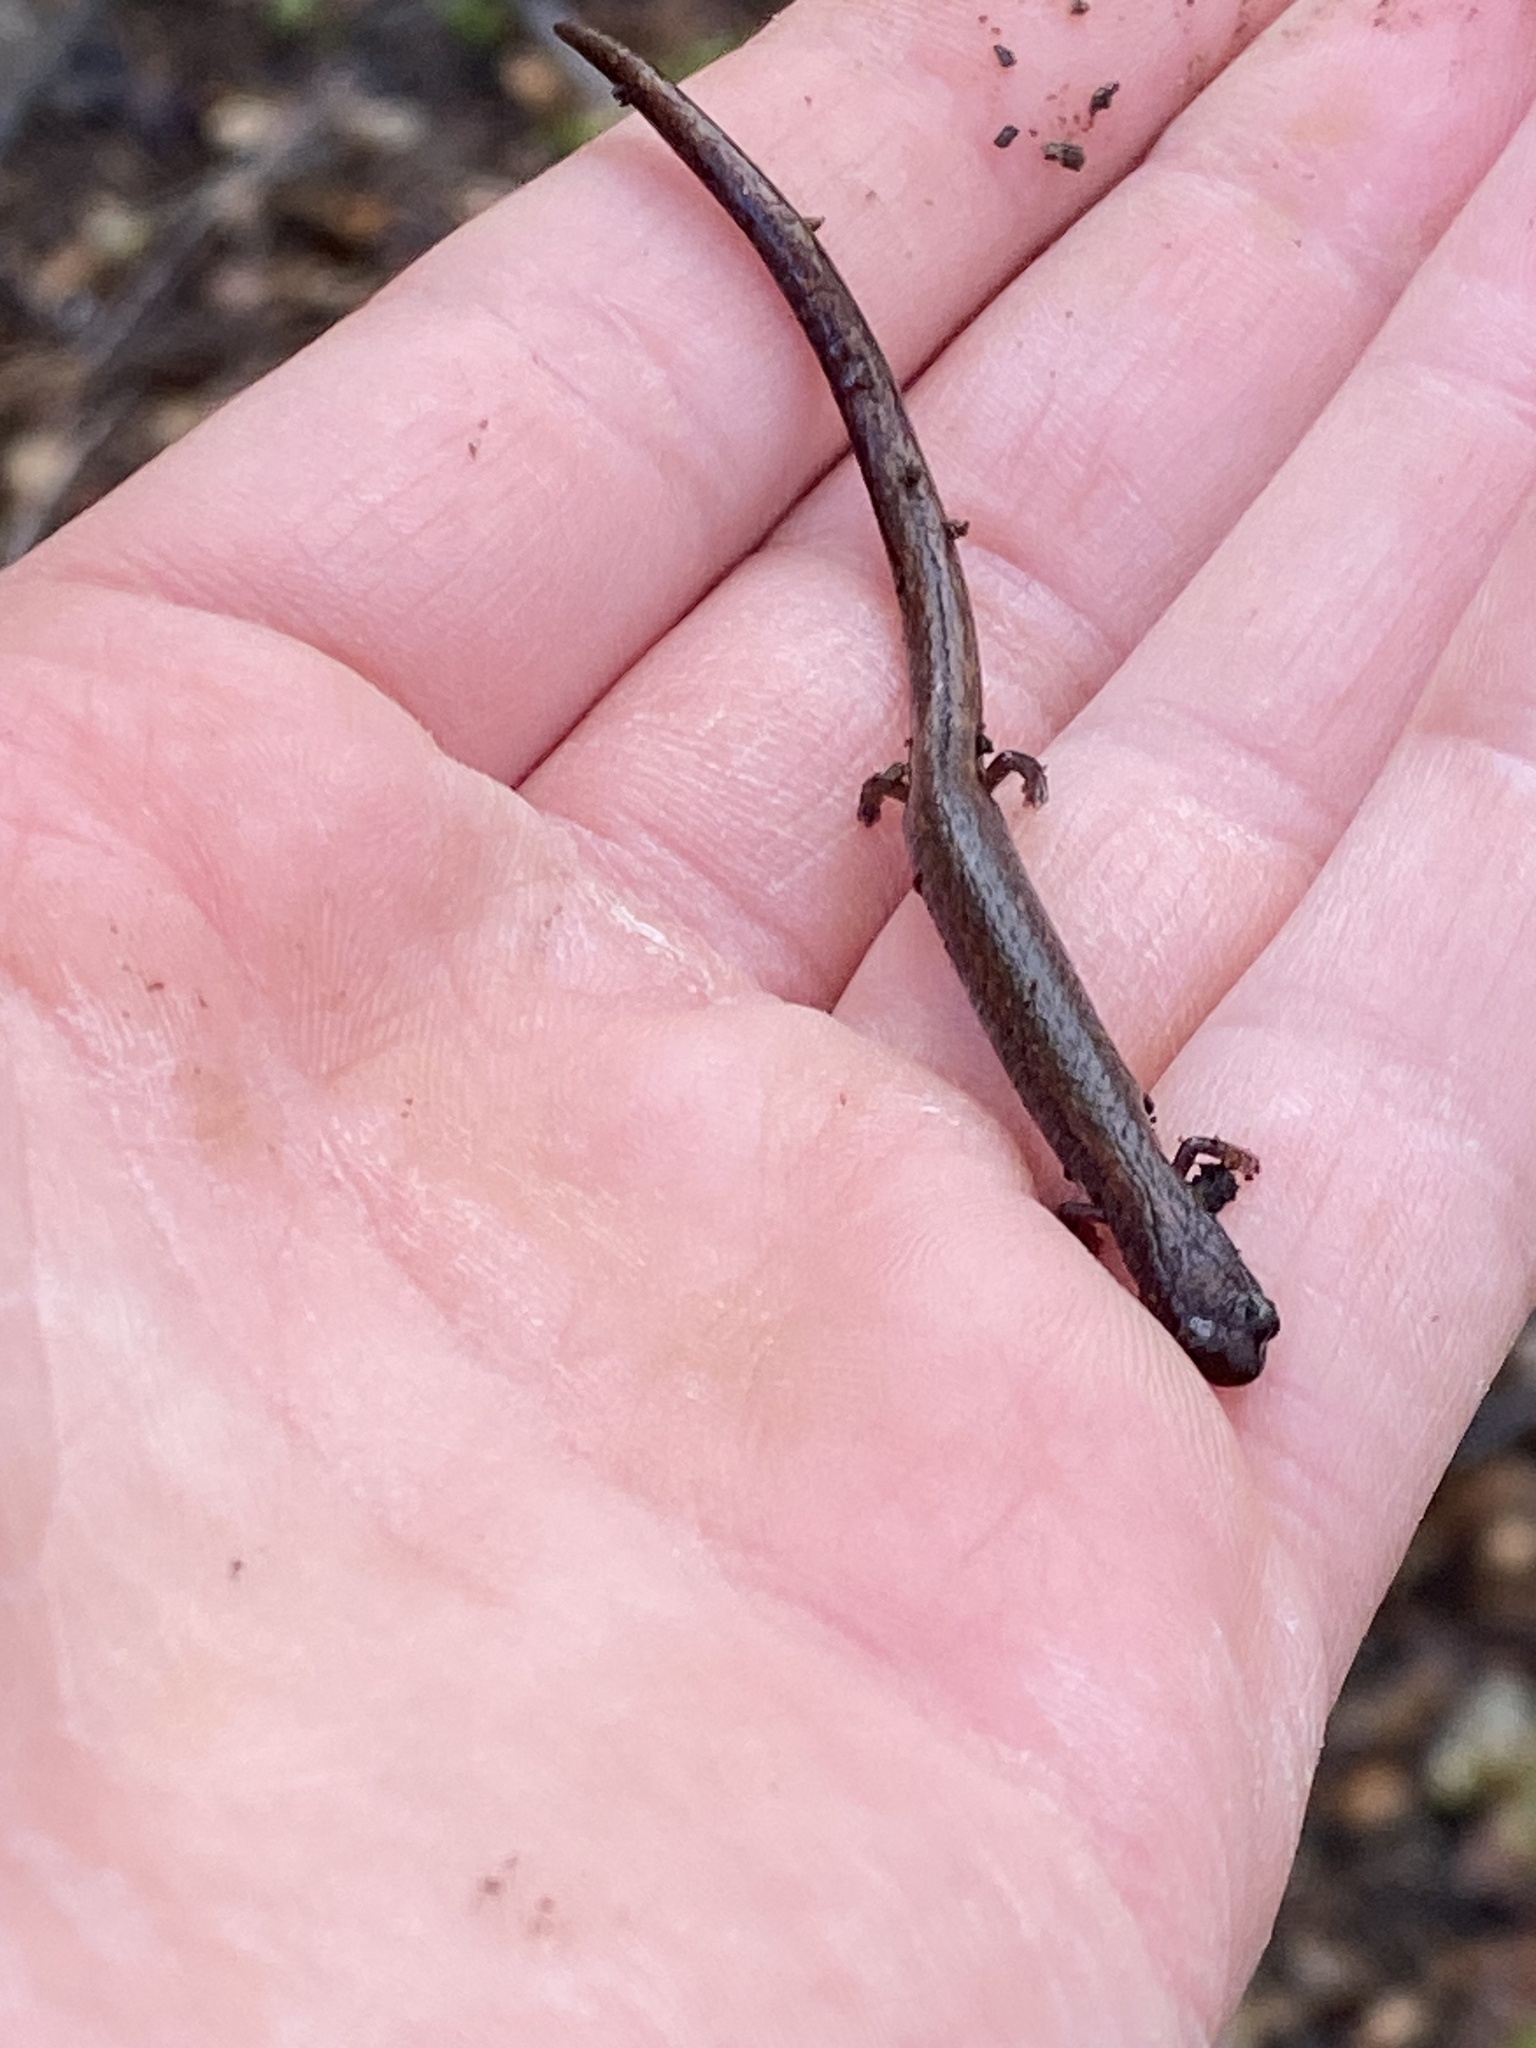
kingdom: Animalia
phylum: Chordata
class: Amphibia
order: Caudata
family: Plethodontidae
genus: Batrachoseps
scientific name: Batrachoseps attenuatus
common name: California slender salamander
